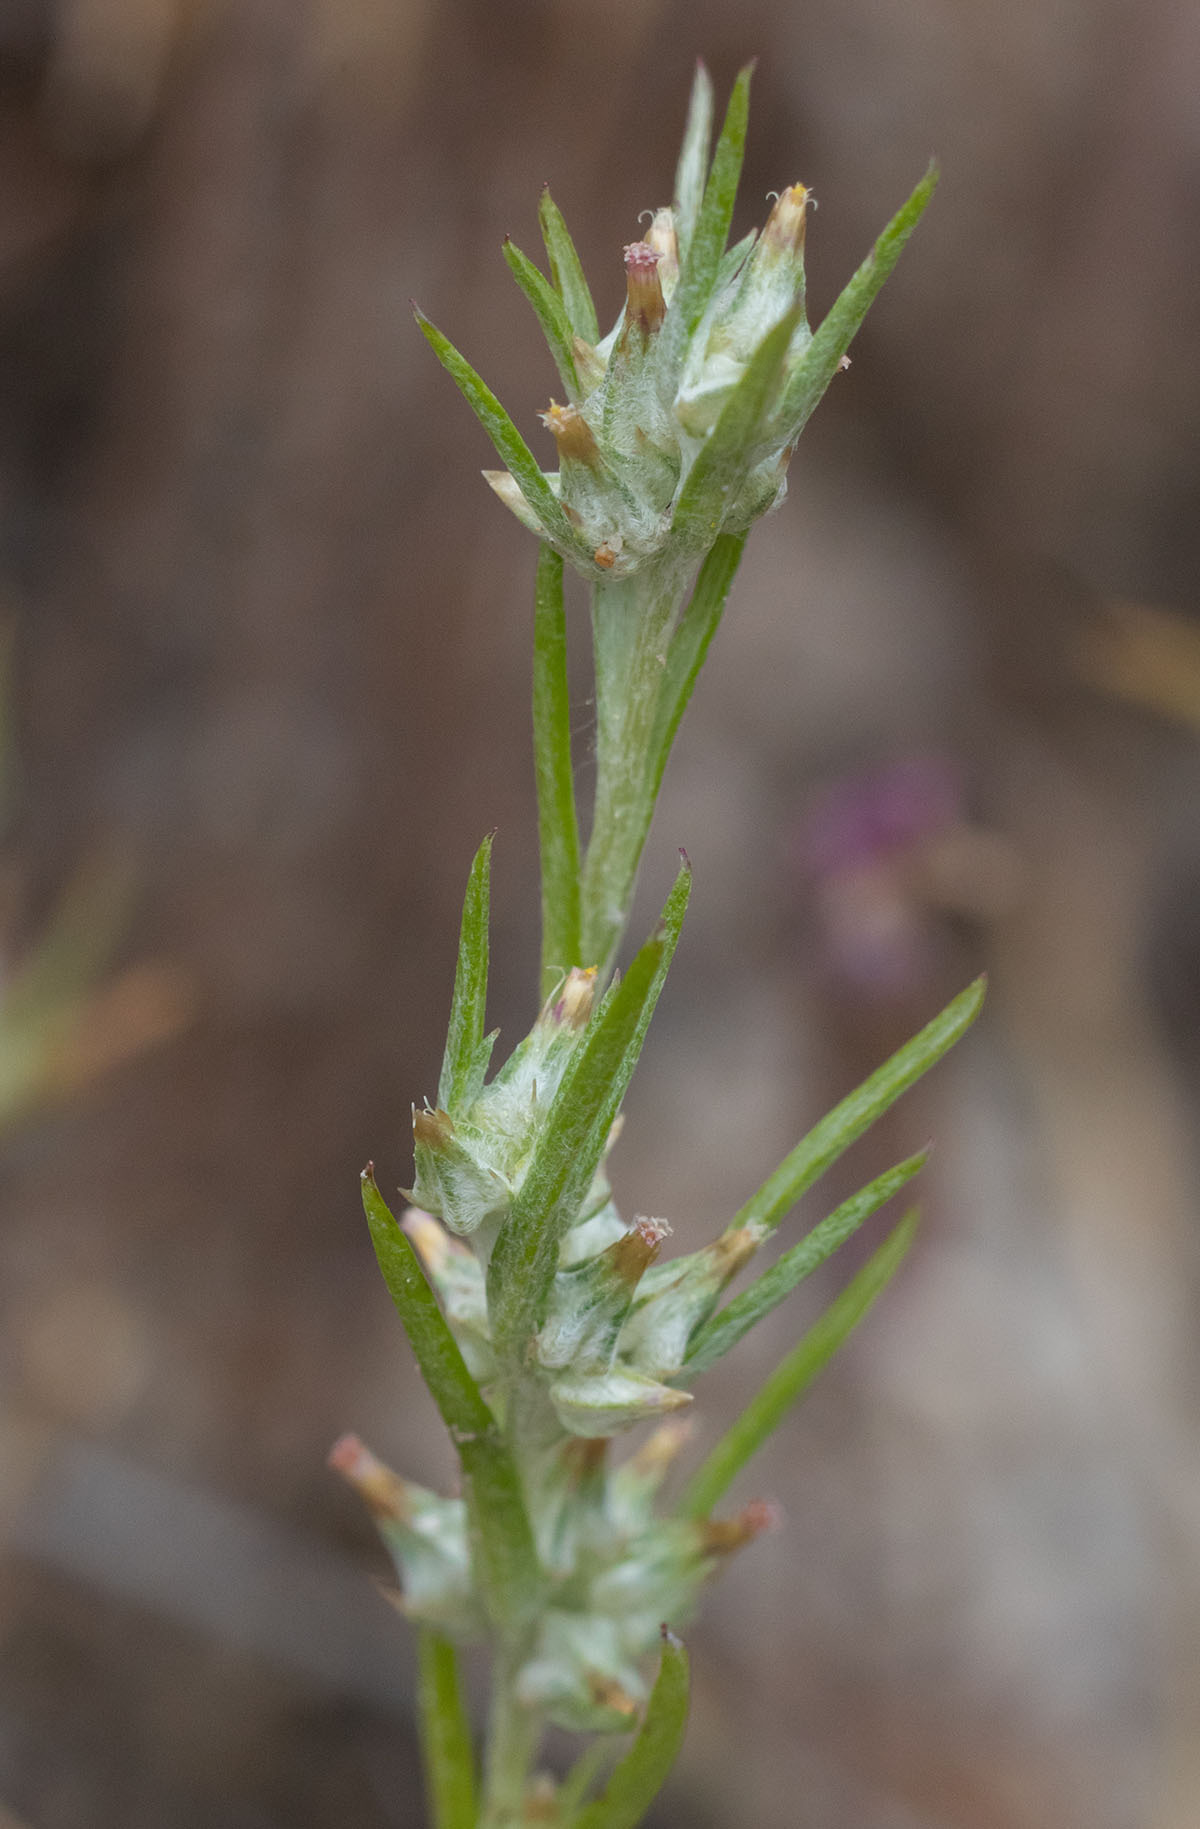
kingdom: Plantae
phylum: Tracheophyta
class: Magnoliopsida
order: Asterales
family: Asteraceae
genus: Logfia
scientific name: Logfia gallica
